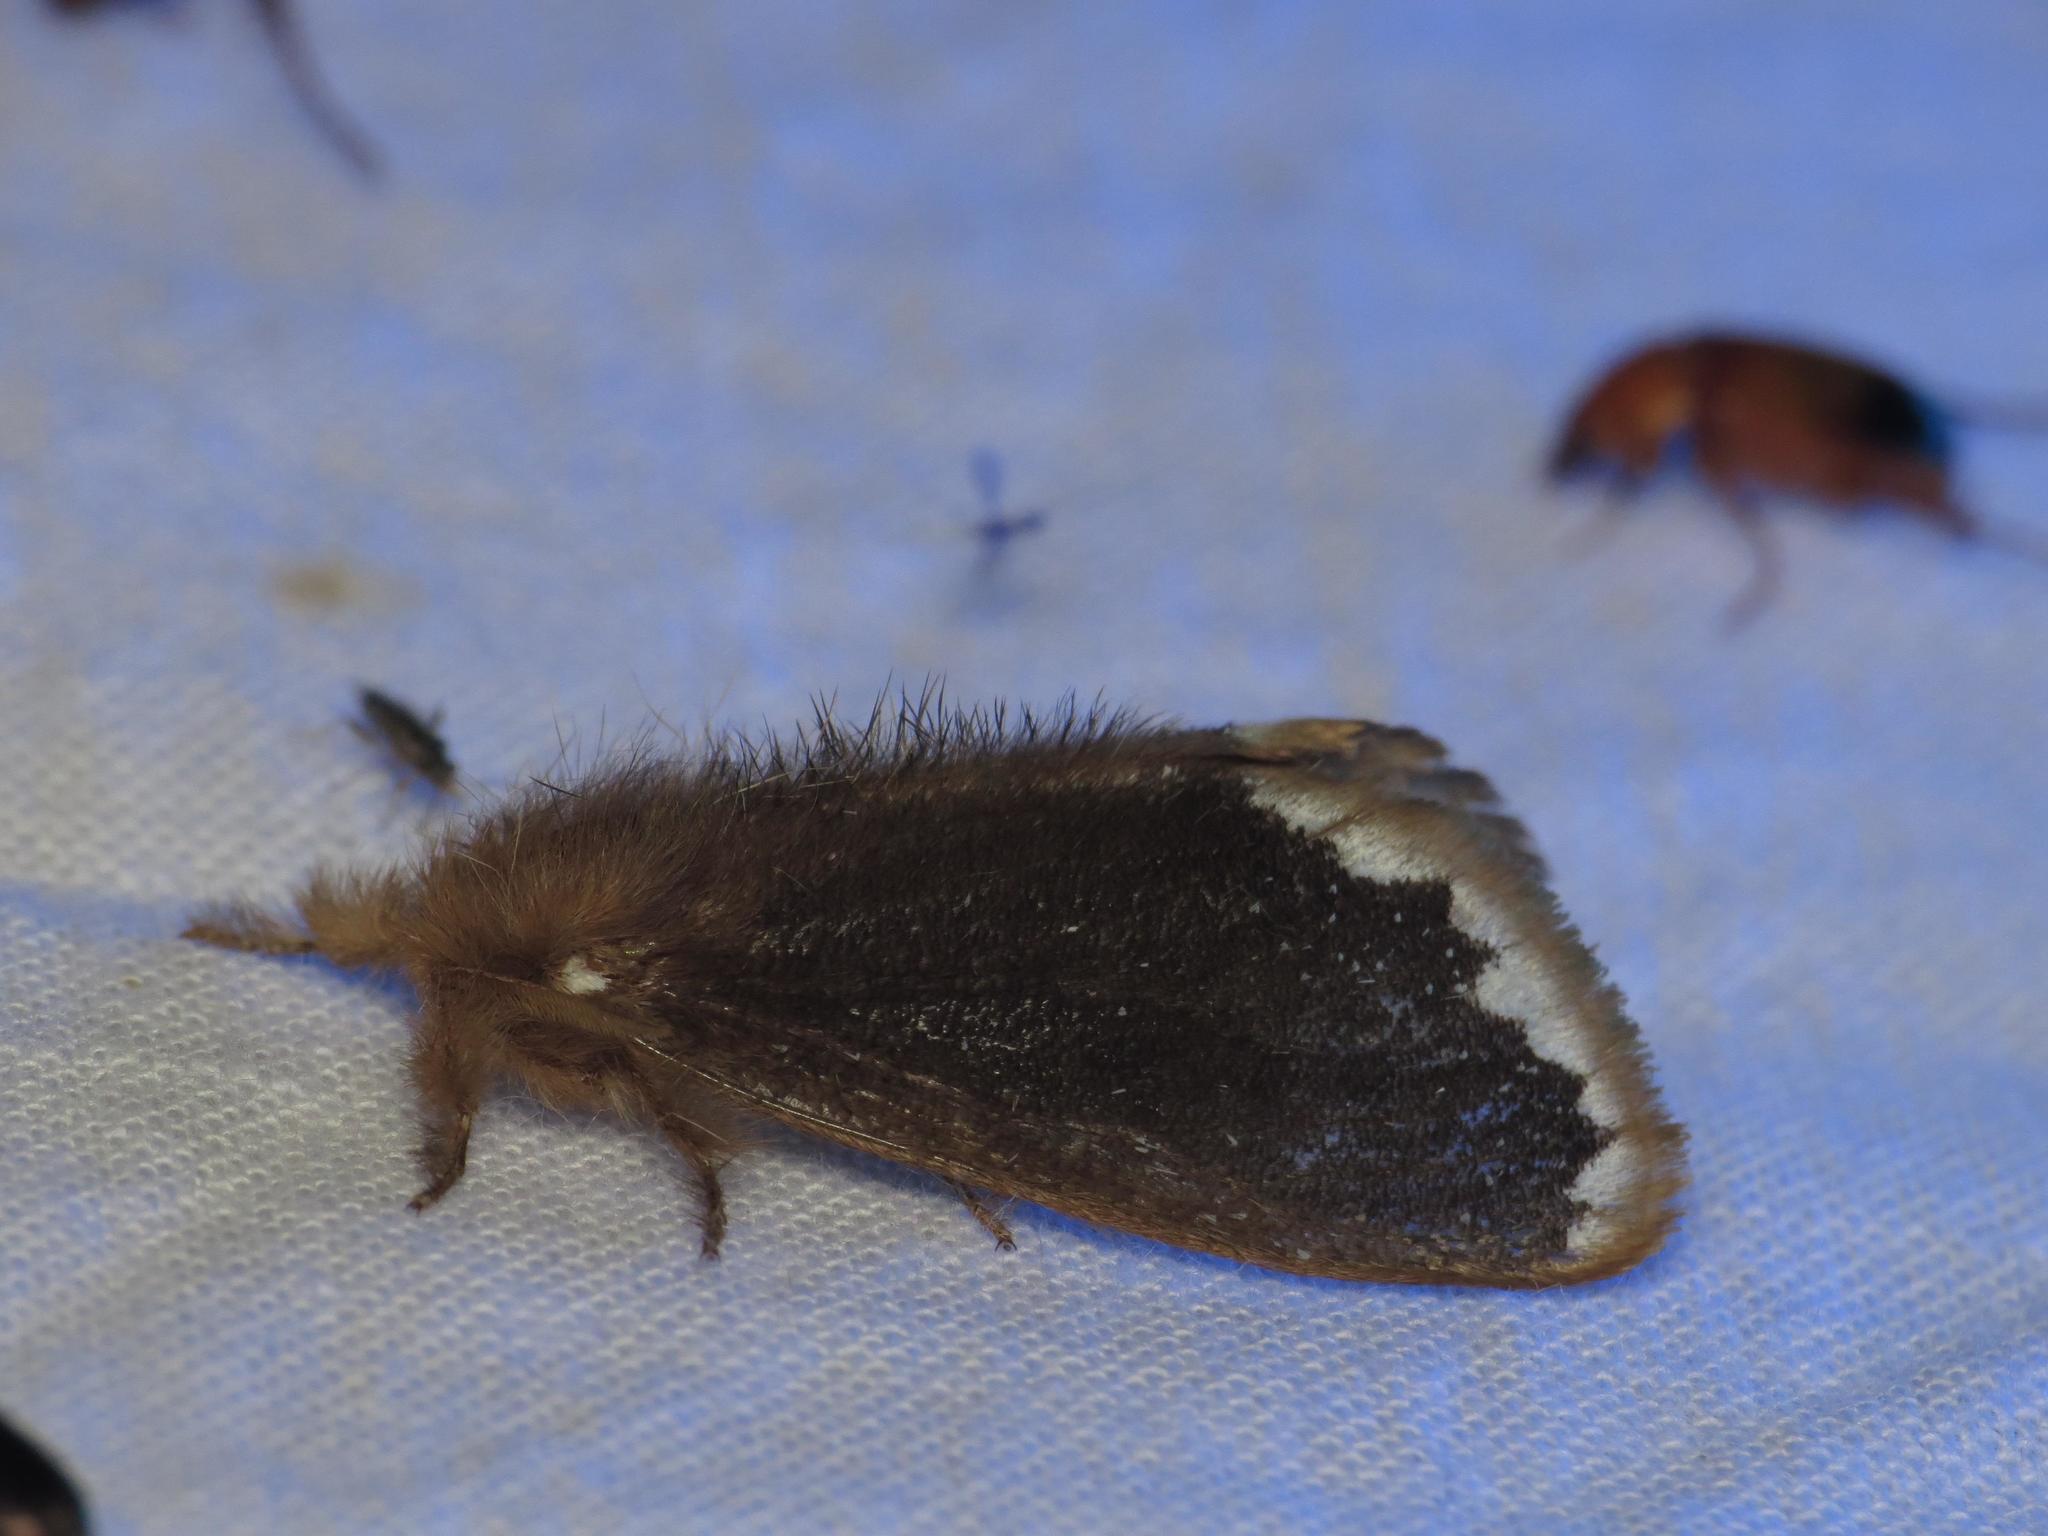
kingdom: Animalia
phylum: Arthropoda
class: Insecta
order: Lepidoptera
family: Erebidae
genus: Euproctis
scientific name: Euproctis
